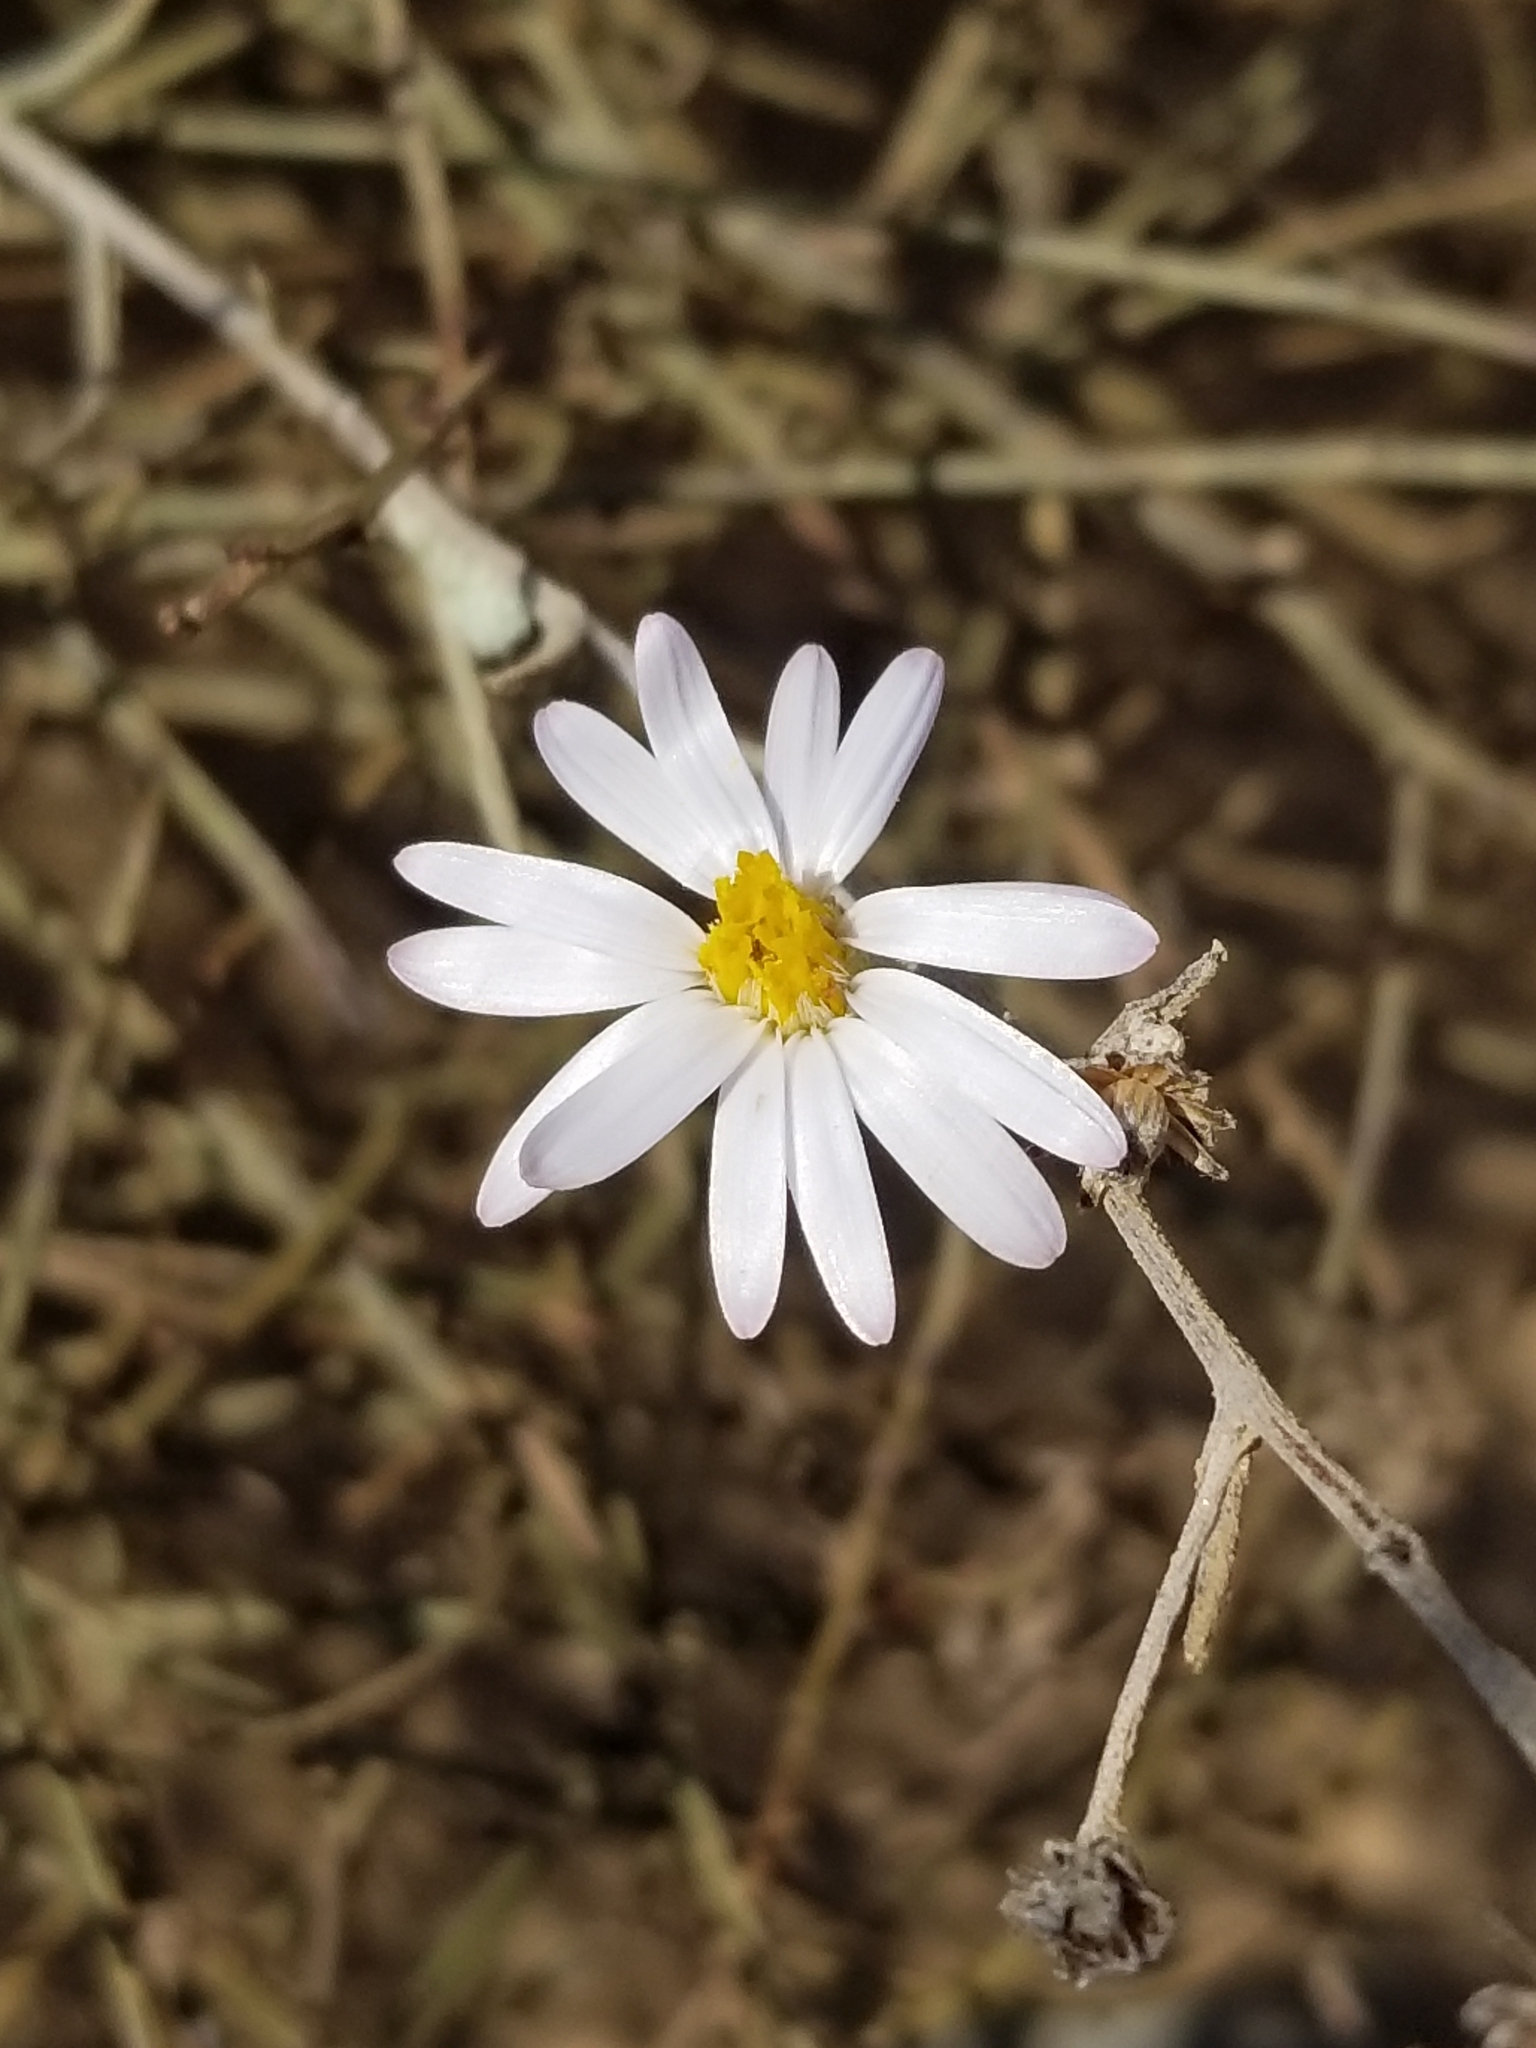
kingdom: Plantae
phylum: Tracheophyta
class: Magnoliopsida
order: Asterales
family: Asteraceae
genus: Corethrogyne
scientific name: Corethrogyne filaginifolia
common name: Sand-aster
